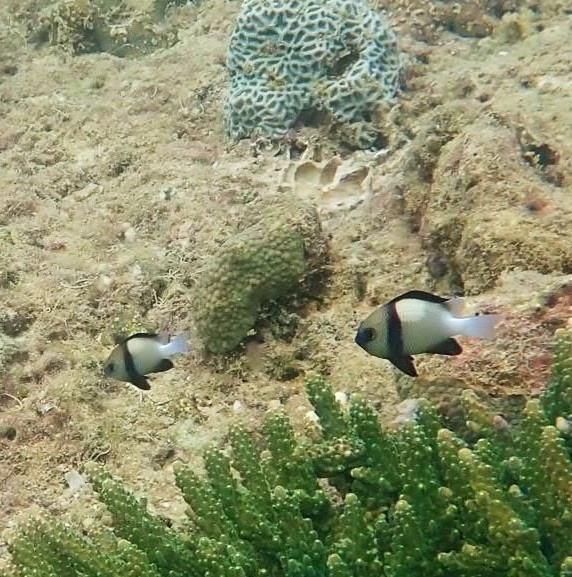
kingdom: Animalia
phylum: Chordata
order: Perciformes
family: Pomacentridae
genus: Dascyllus
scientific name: Dascyllus carneus
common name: Indian dascyllus
